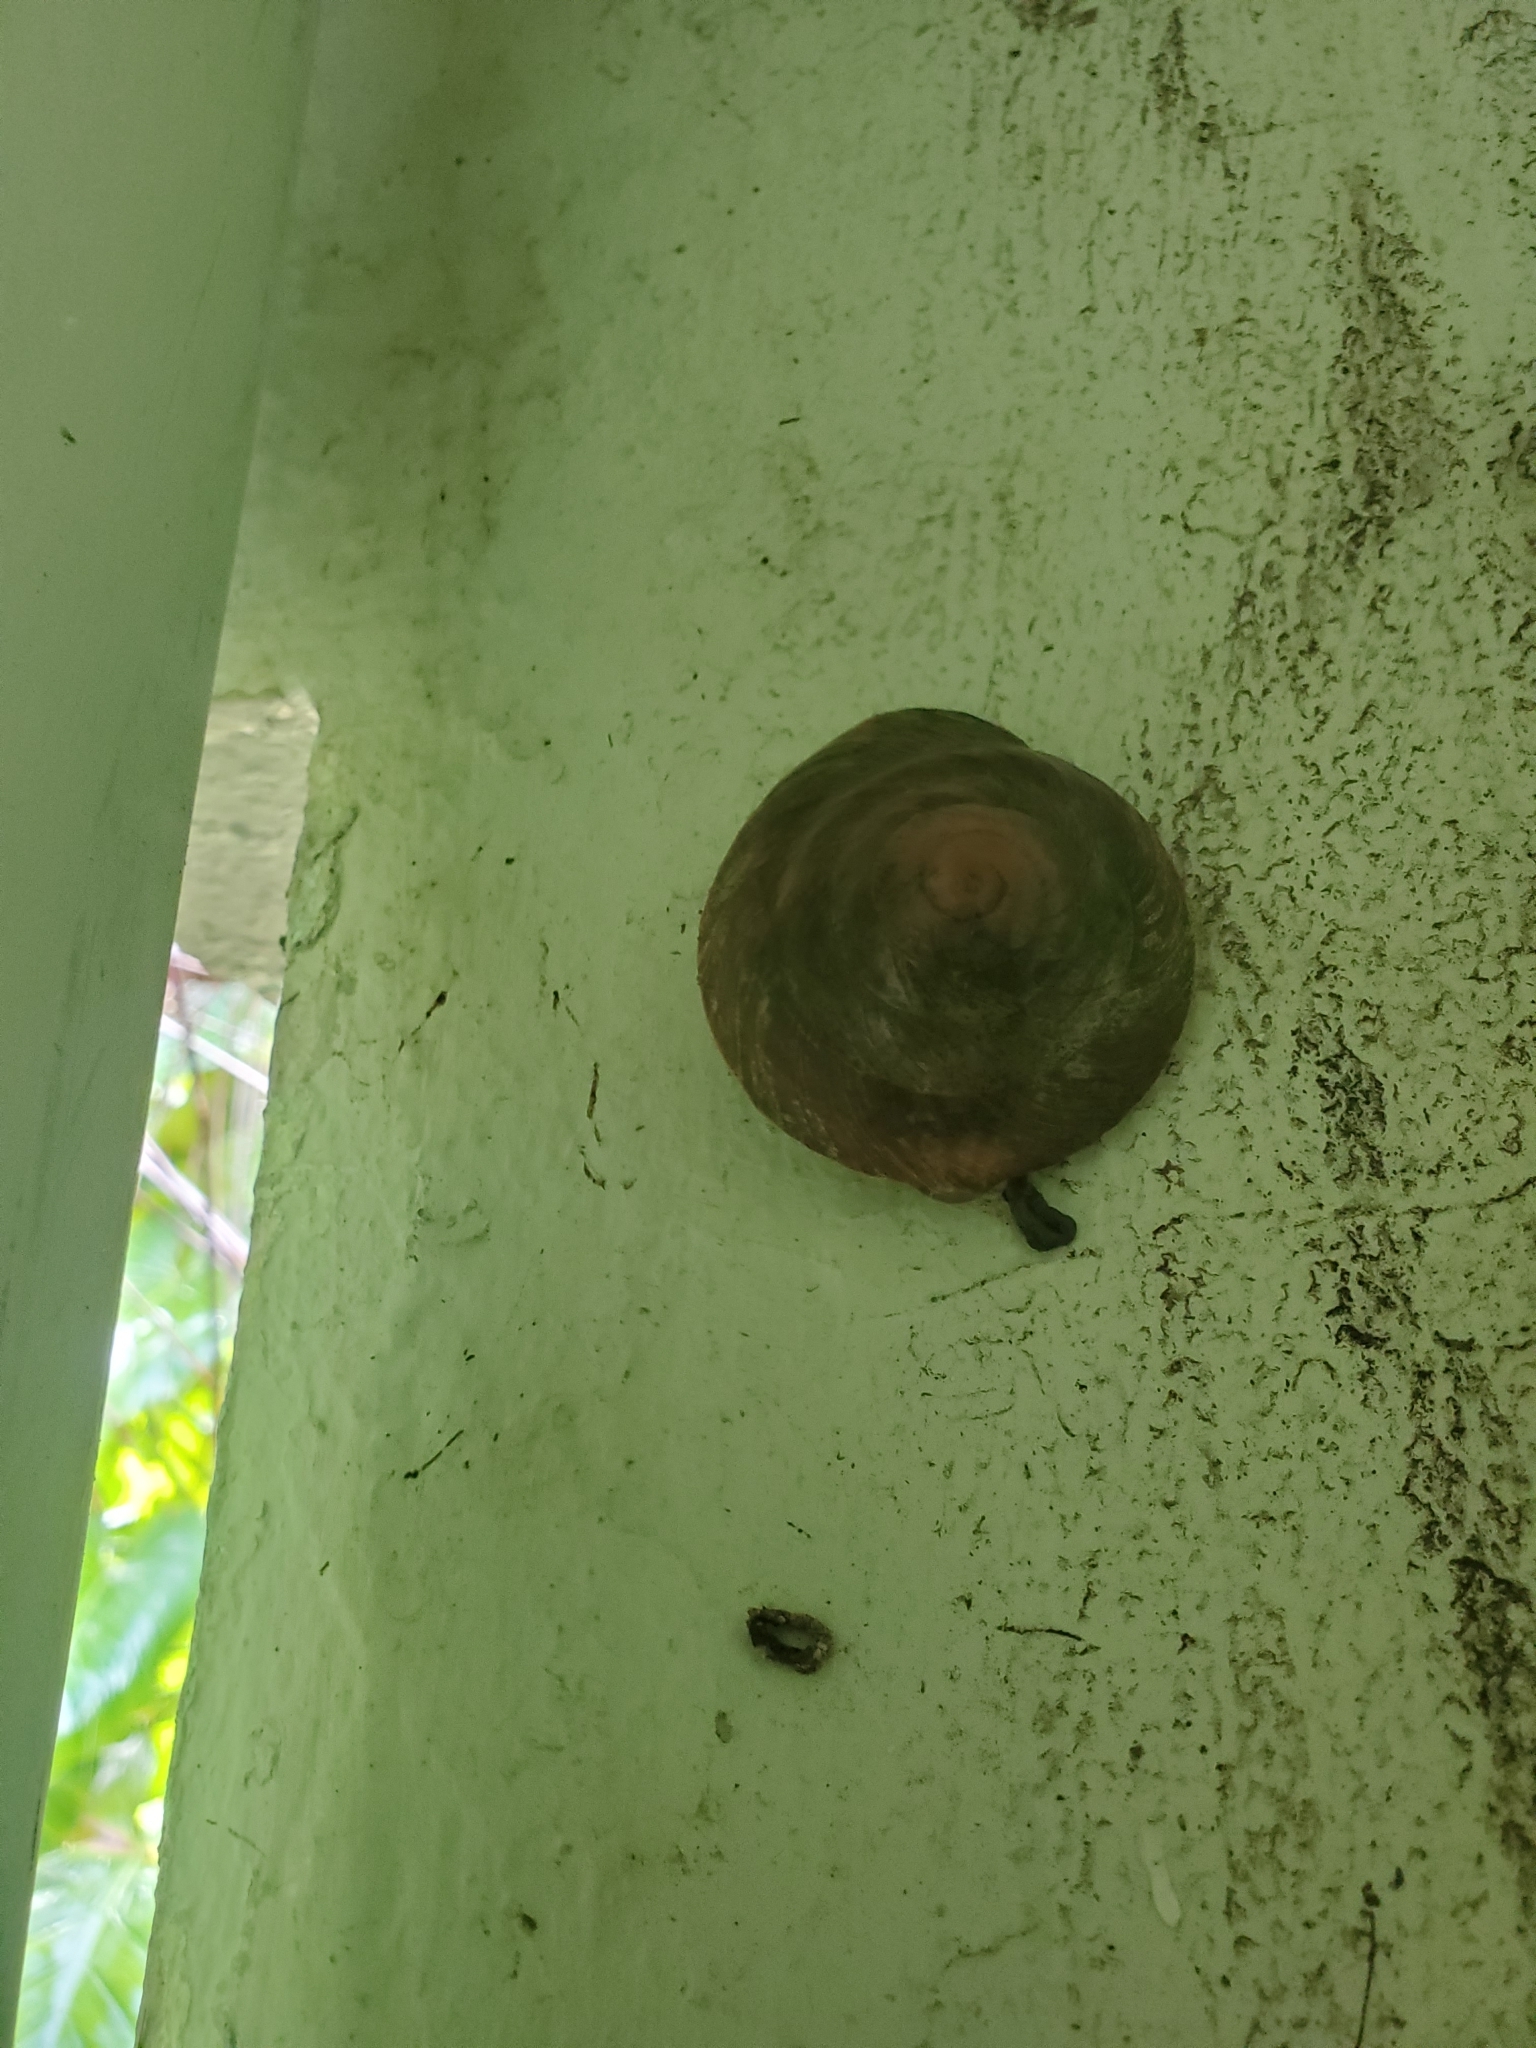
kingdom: Animalia
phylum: Mollusca
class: Gastropoda
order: Stylommatophora
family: Solaropsidae
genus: Caracolus
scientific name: Caracolus carocolla
